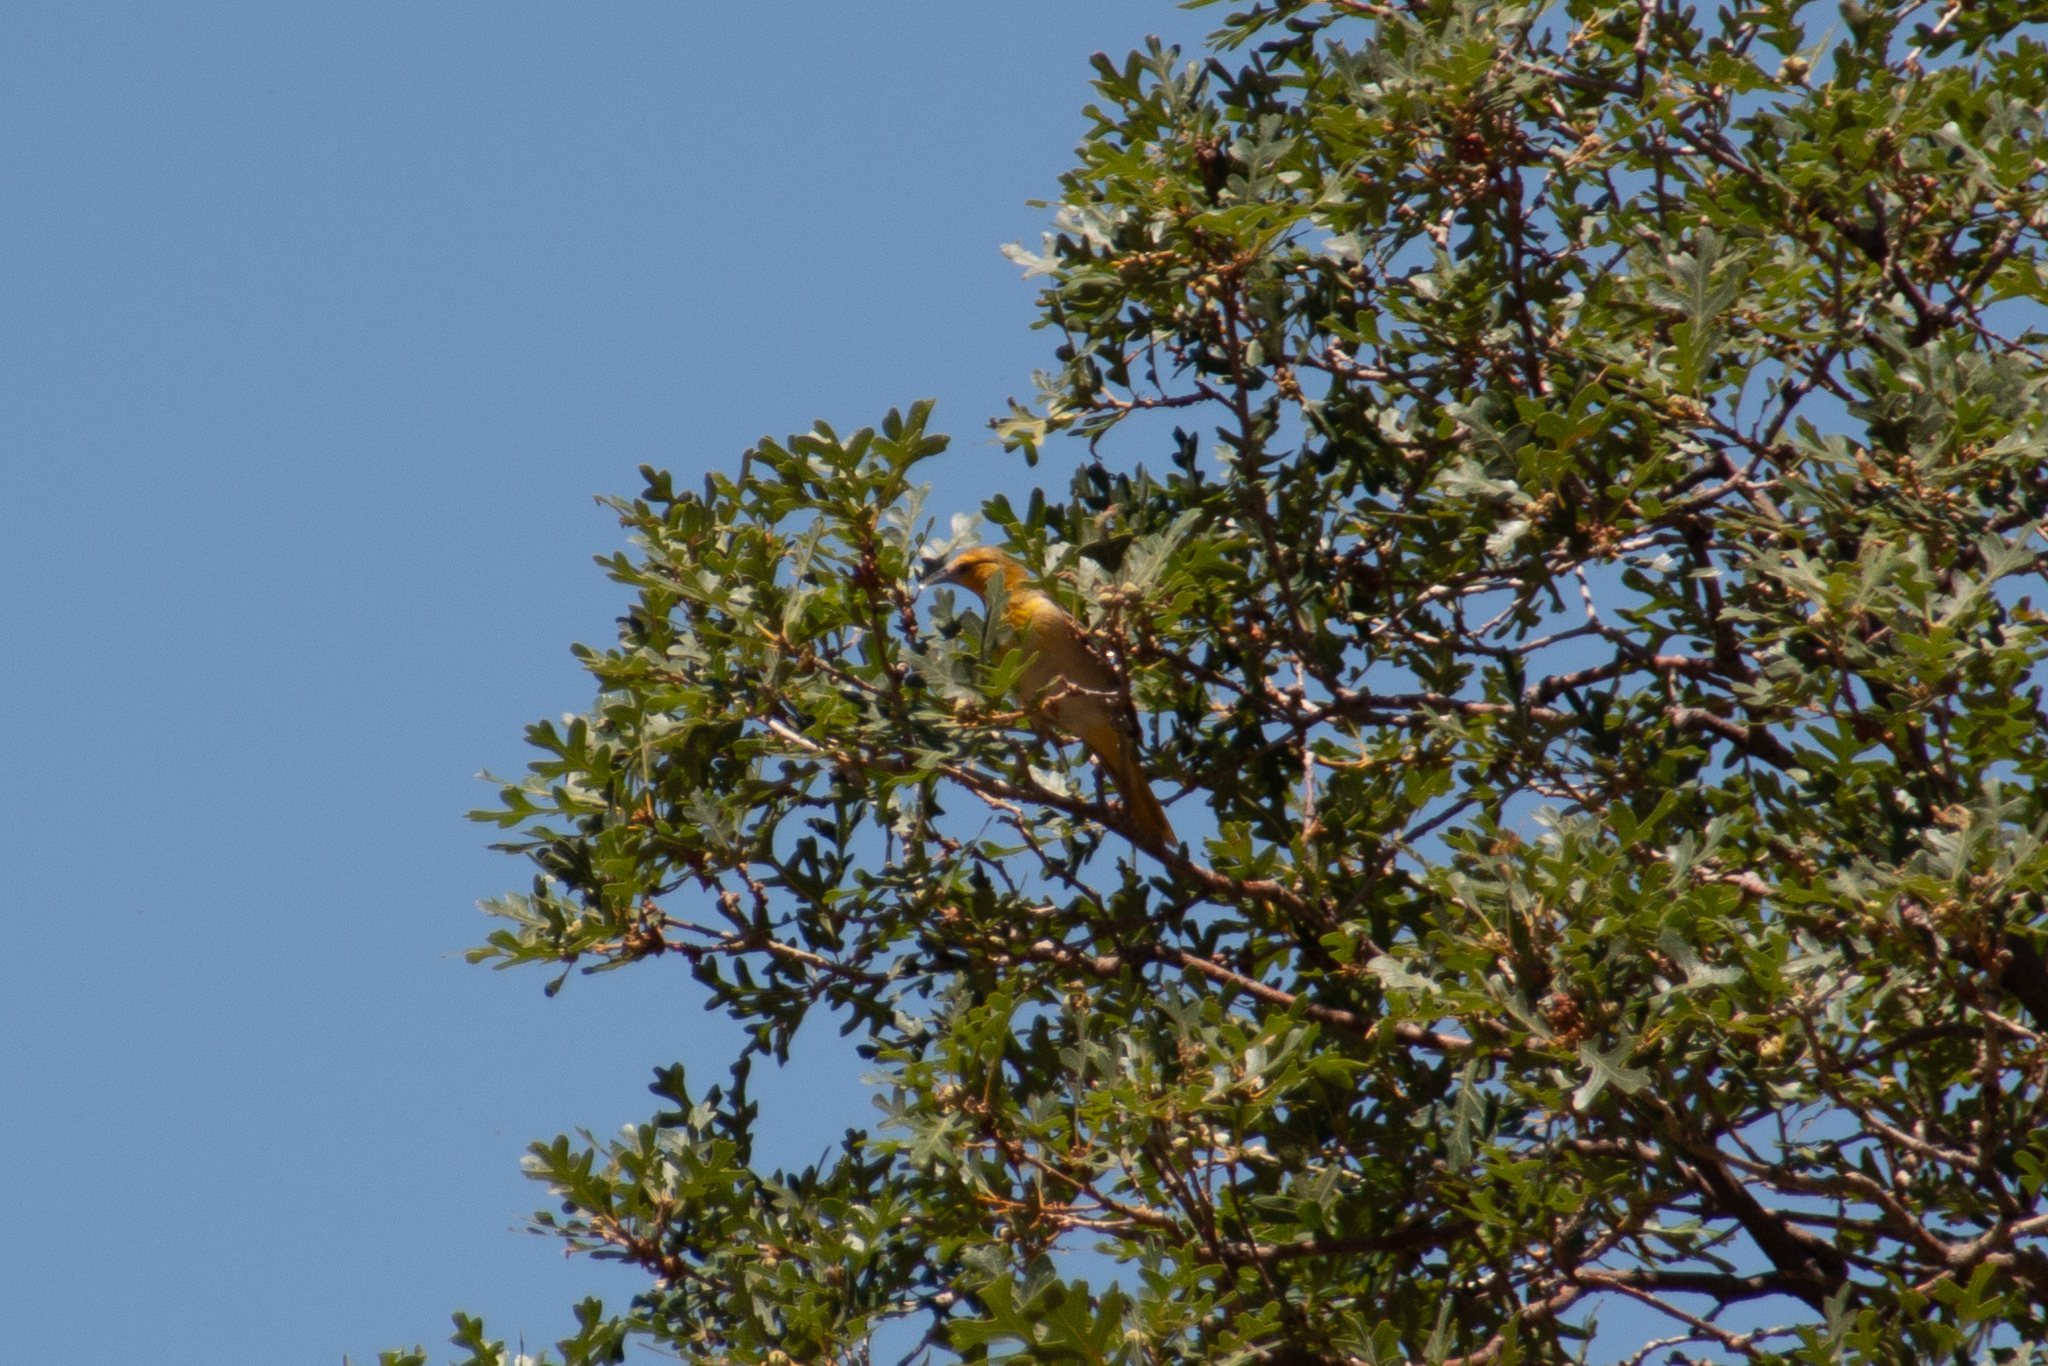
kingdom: Animalia
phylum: Chordata
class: Aves
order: Passeriformes
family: Icteridae
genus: Icterus
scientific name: Icterus bullockii
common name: Bullock's oriole
